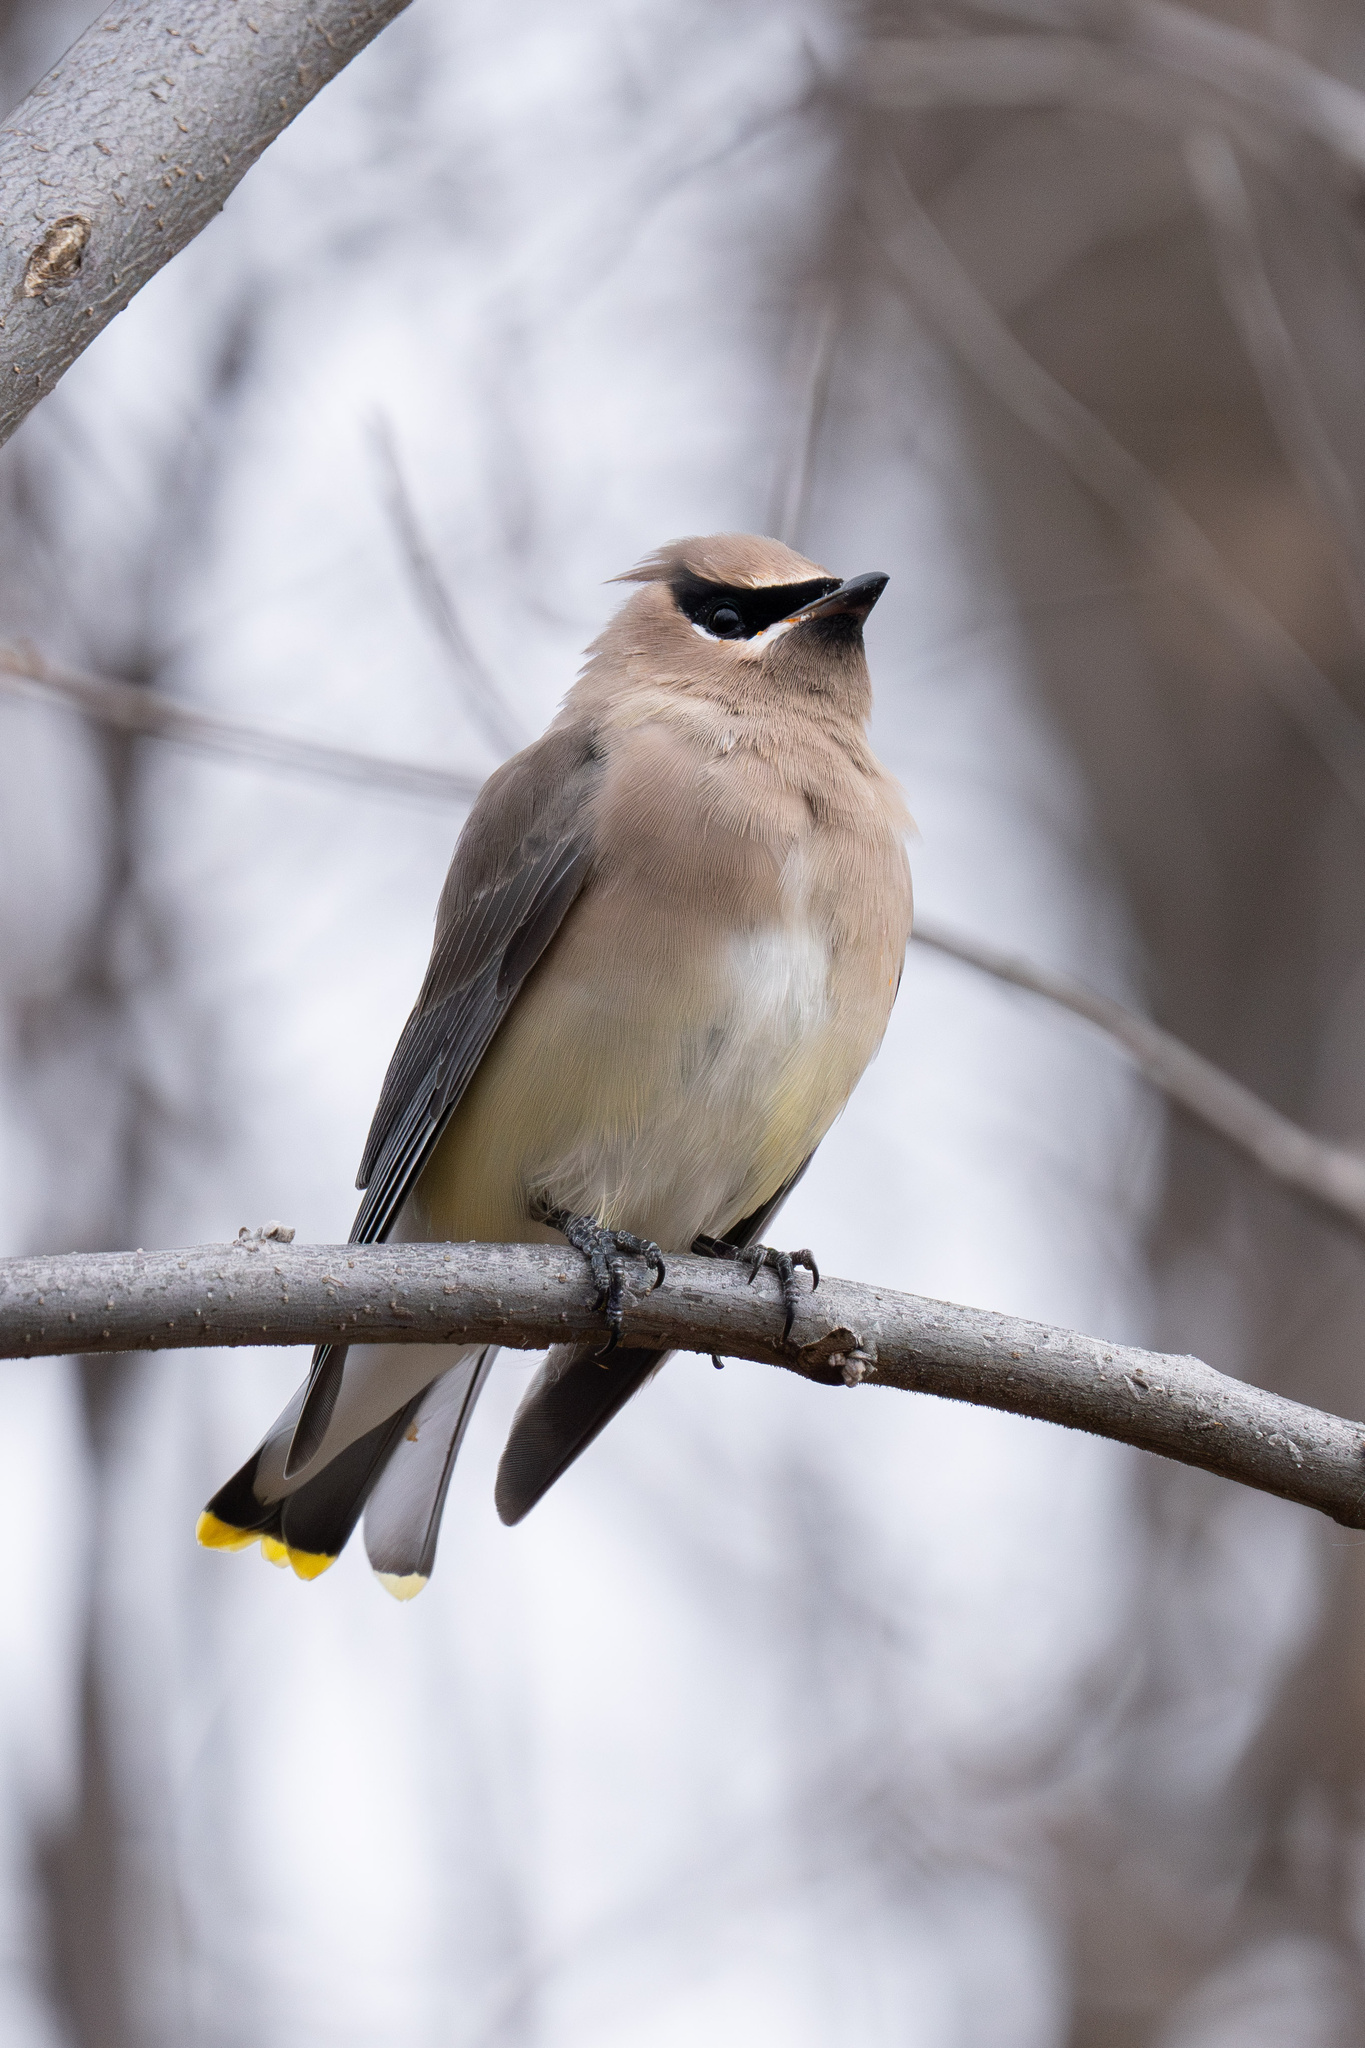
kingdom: Animalia
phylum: Chordata
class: Aves
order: Passeriformes
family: Bombycillidae
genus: Bombycilla
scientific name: Bombycilla cedrorum
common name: Cedar waxwing
